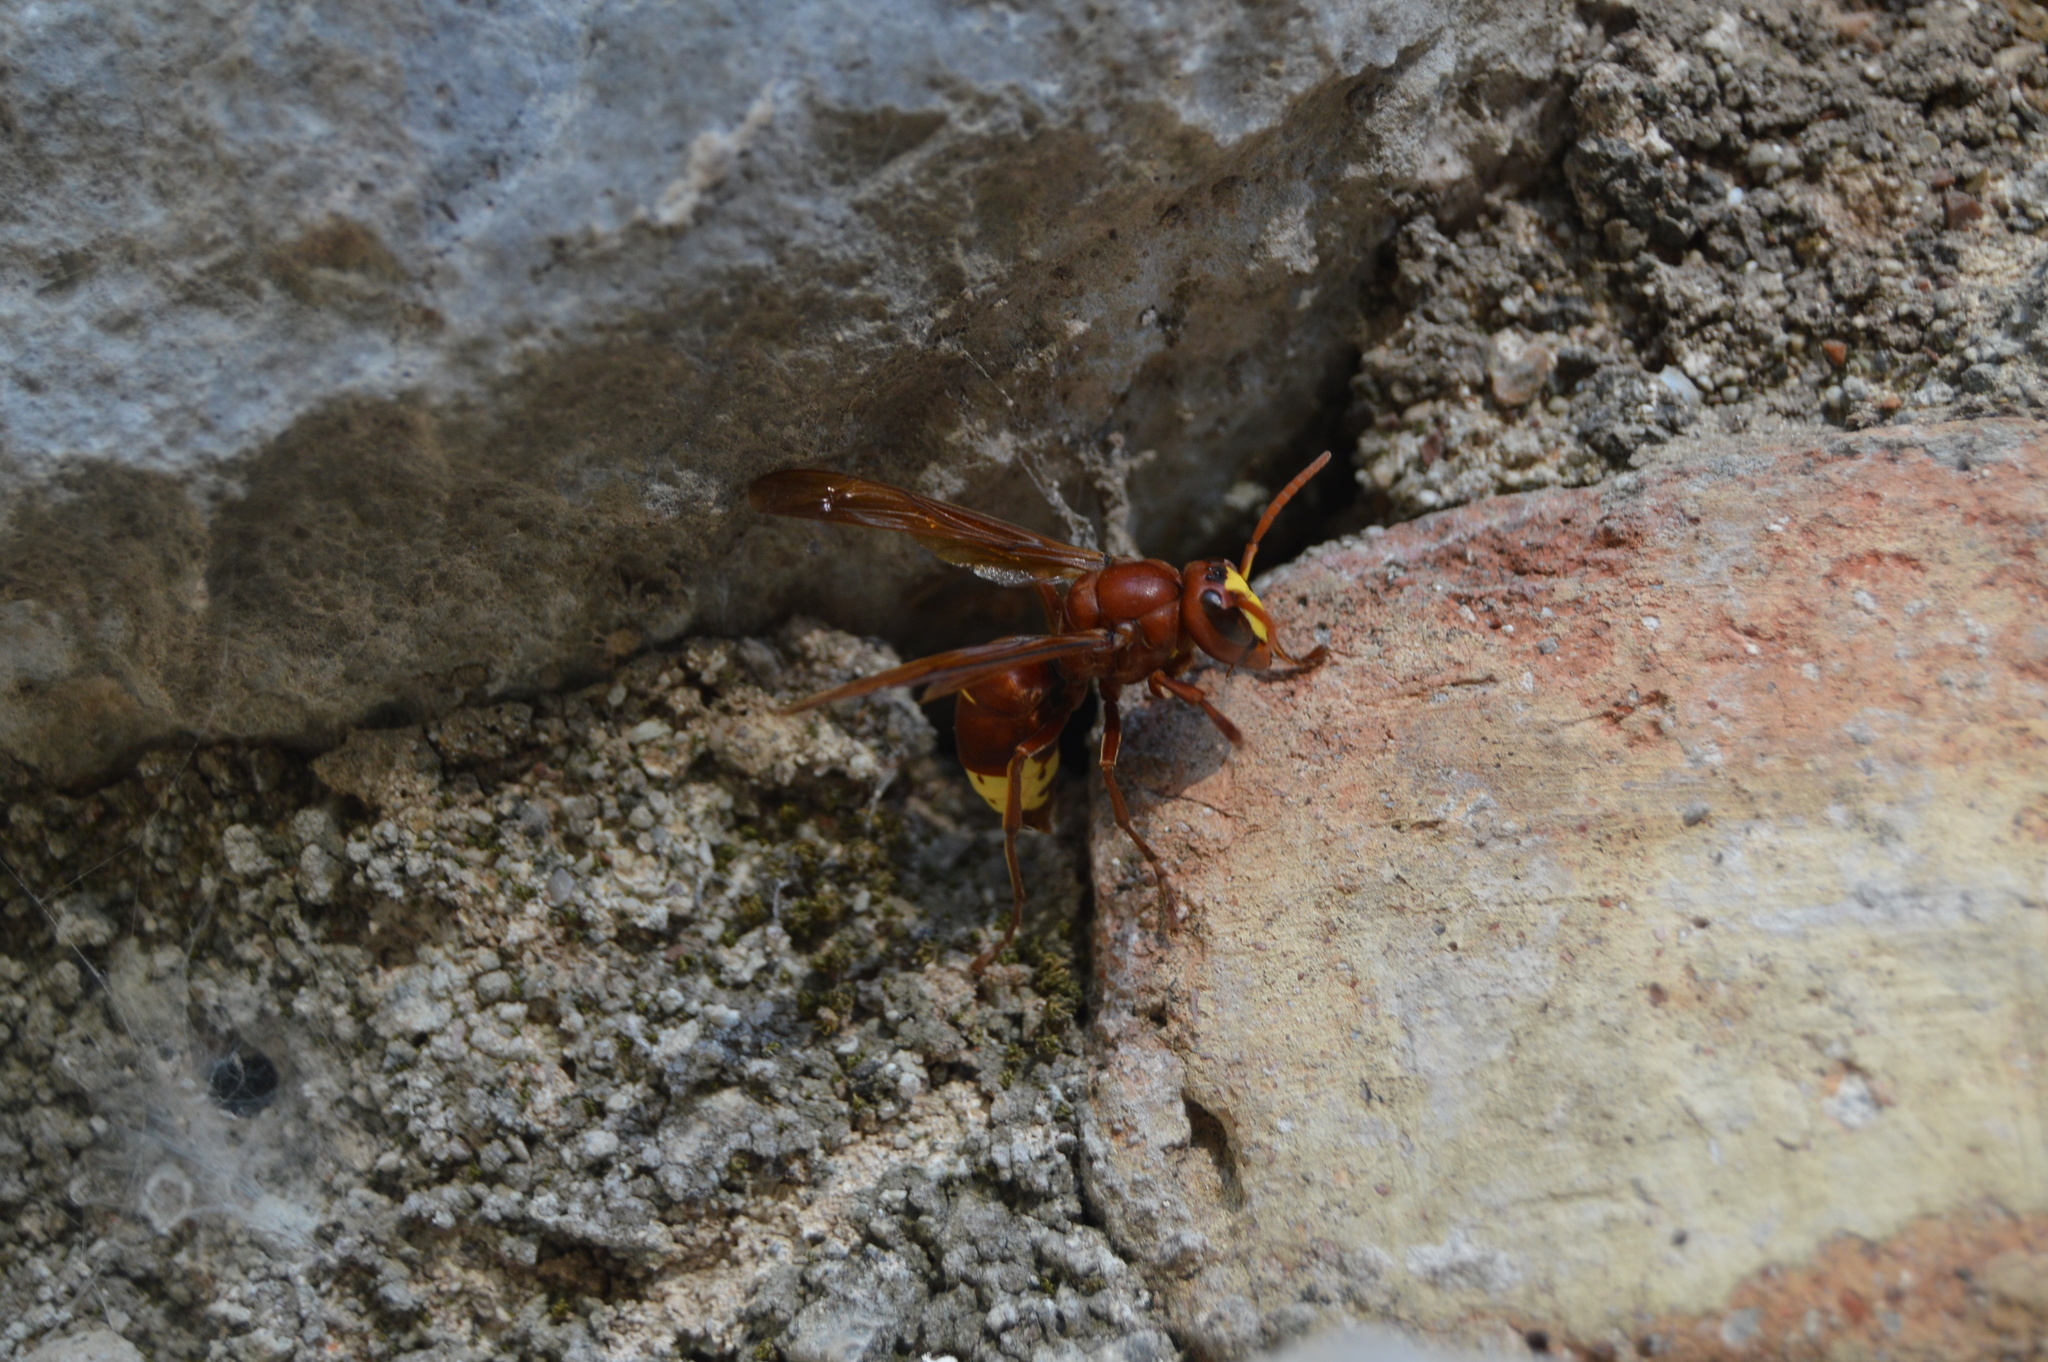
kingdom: Animalia
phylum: Arthropoda
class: Insecta
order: Hymenoptera
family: Vespidae
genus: Vespa
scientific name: Vespa orientalis
